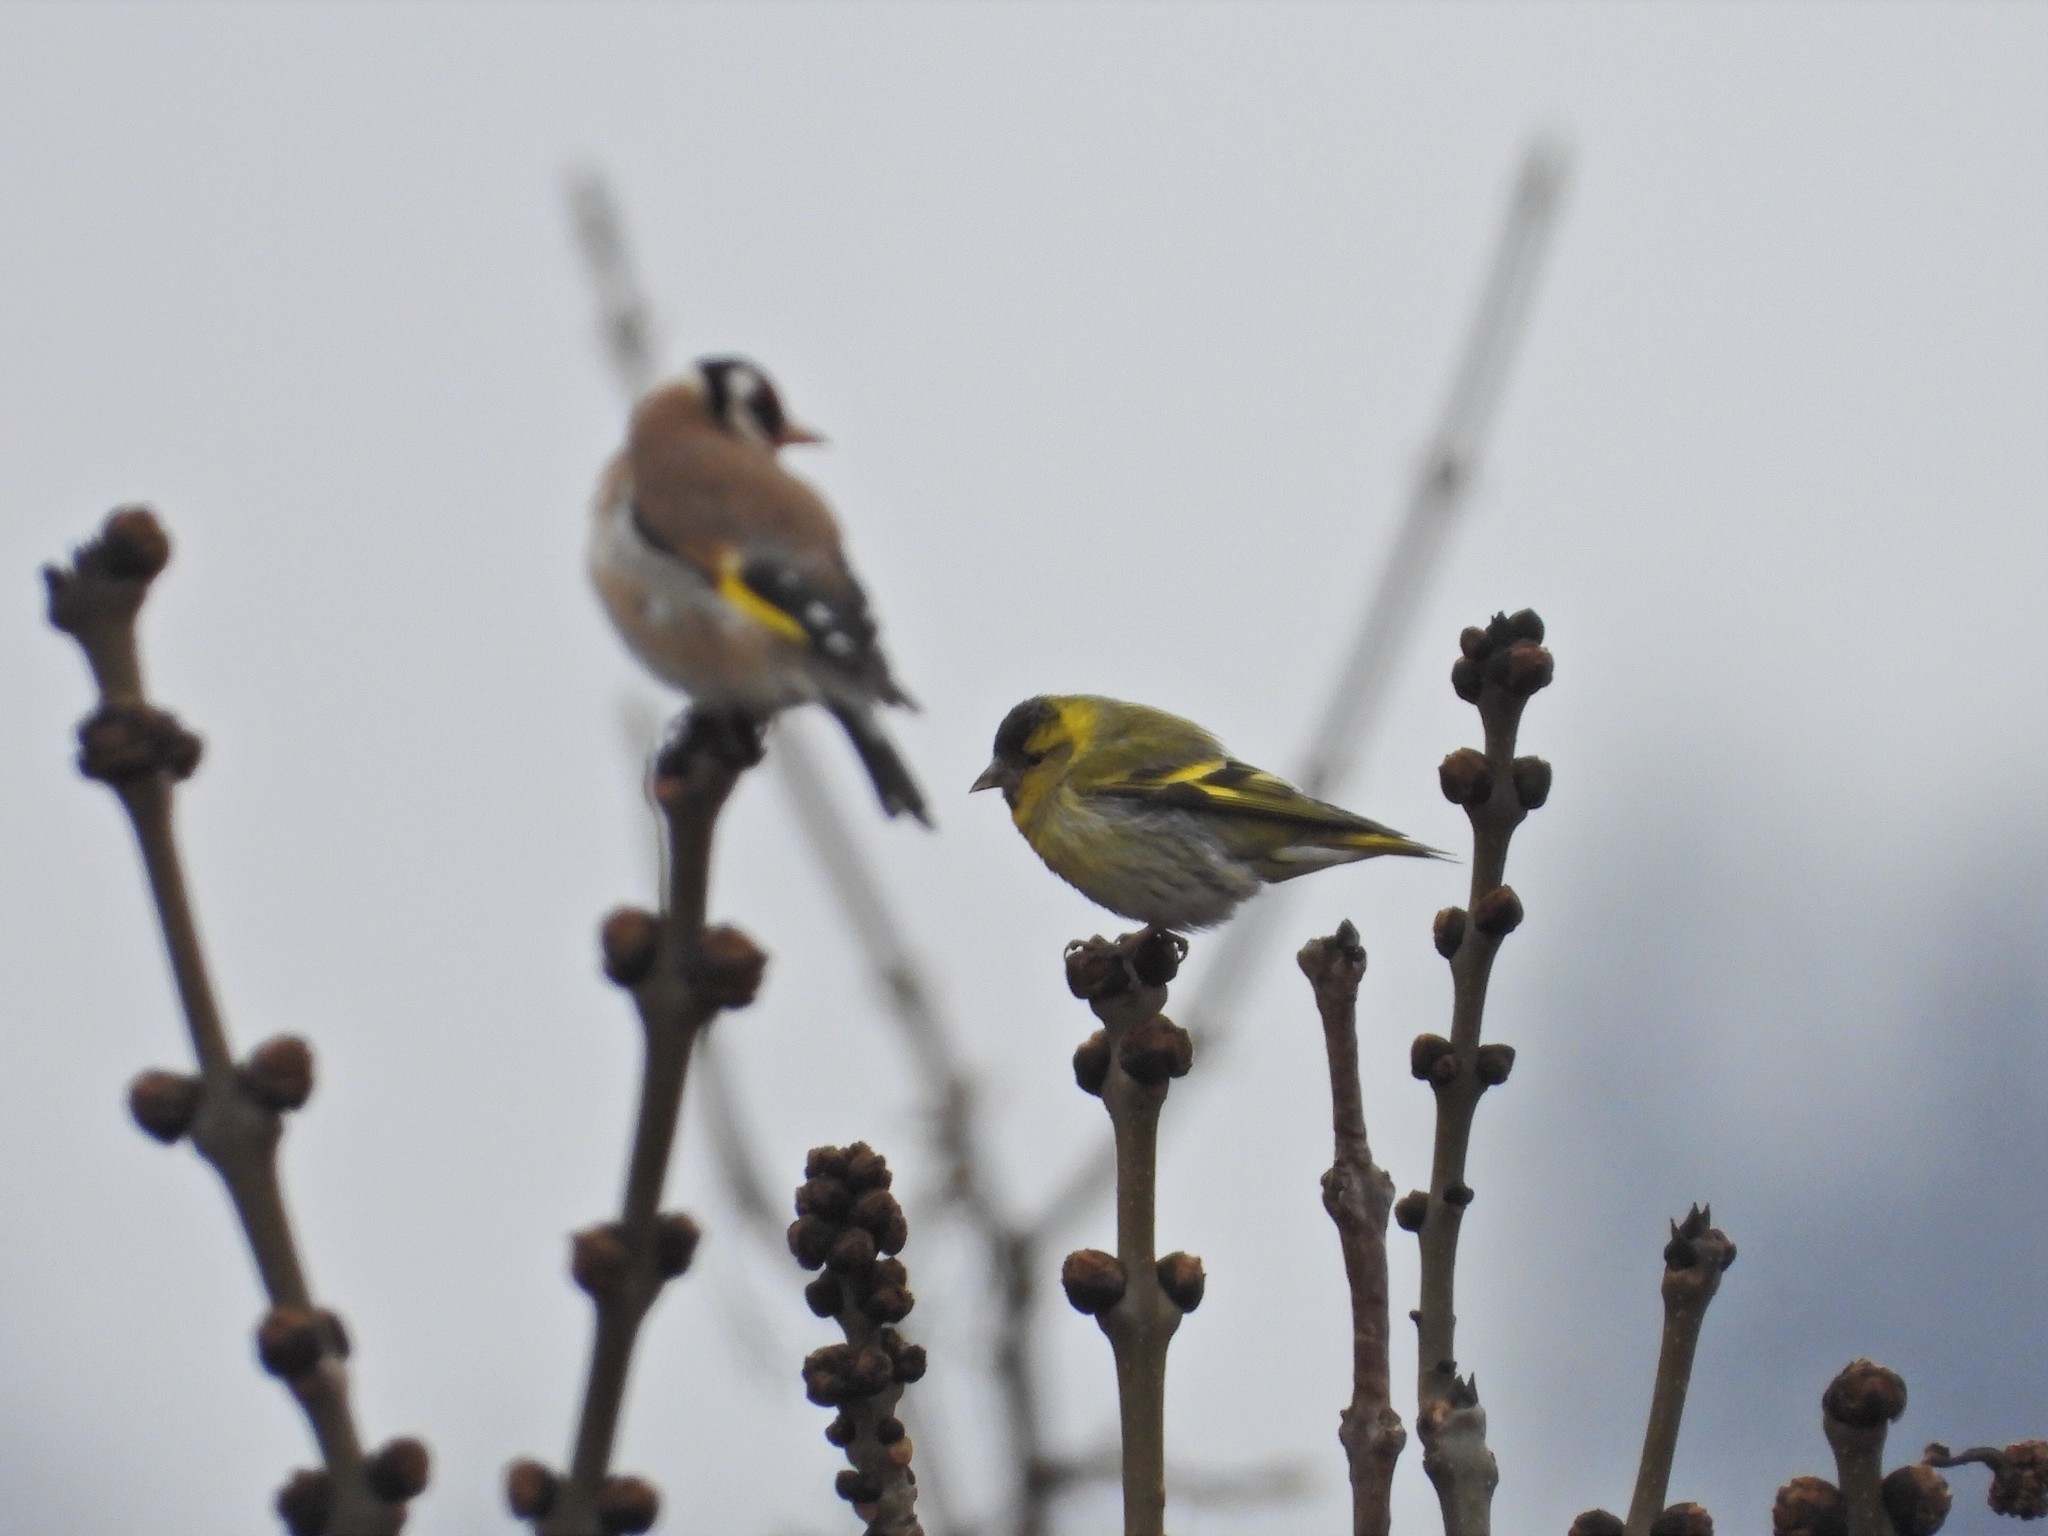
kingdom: Animalia
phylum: Chordata
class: Aves
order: Passeriformes
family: Fringillidae
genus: Spinus
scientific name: Spinus spinus
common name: Eurasian siskin
